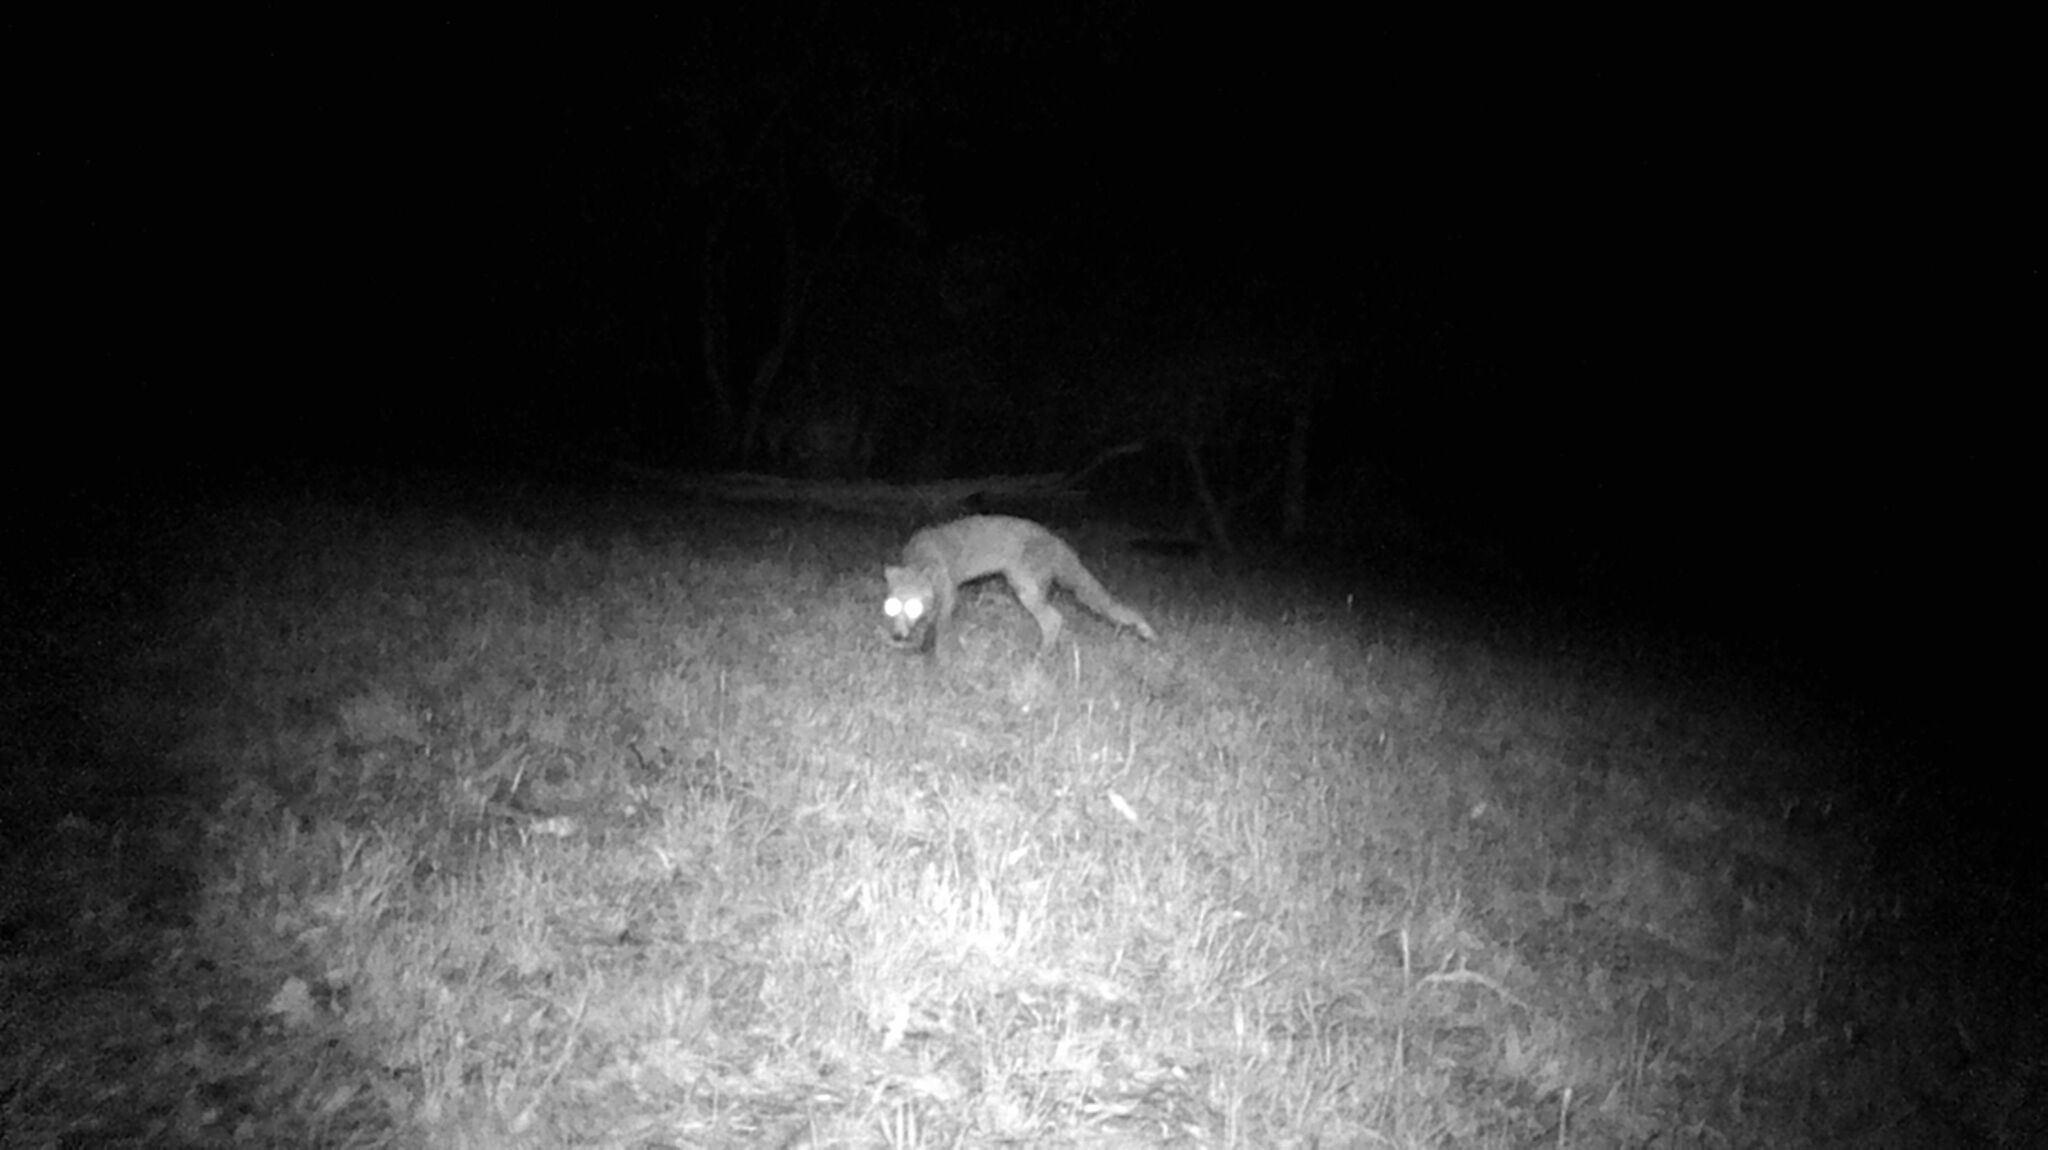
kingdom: Animalia
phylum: Chordata
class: Mammalia
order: Carnivora
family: Canidae
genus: Vulpes
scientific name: Vulpes vulpes
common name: Red fox
